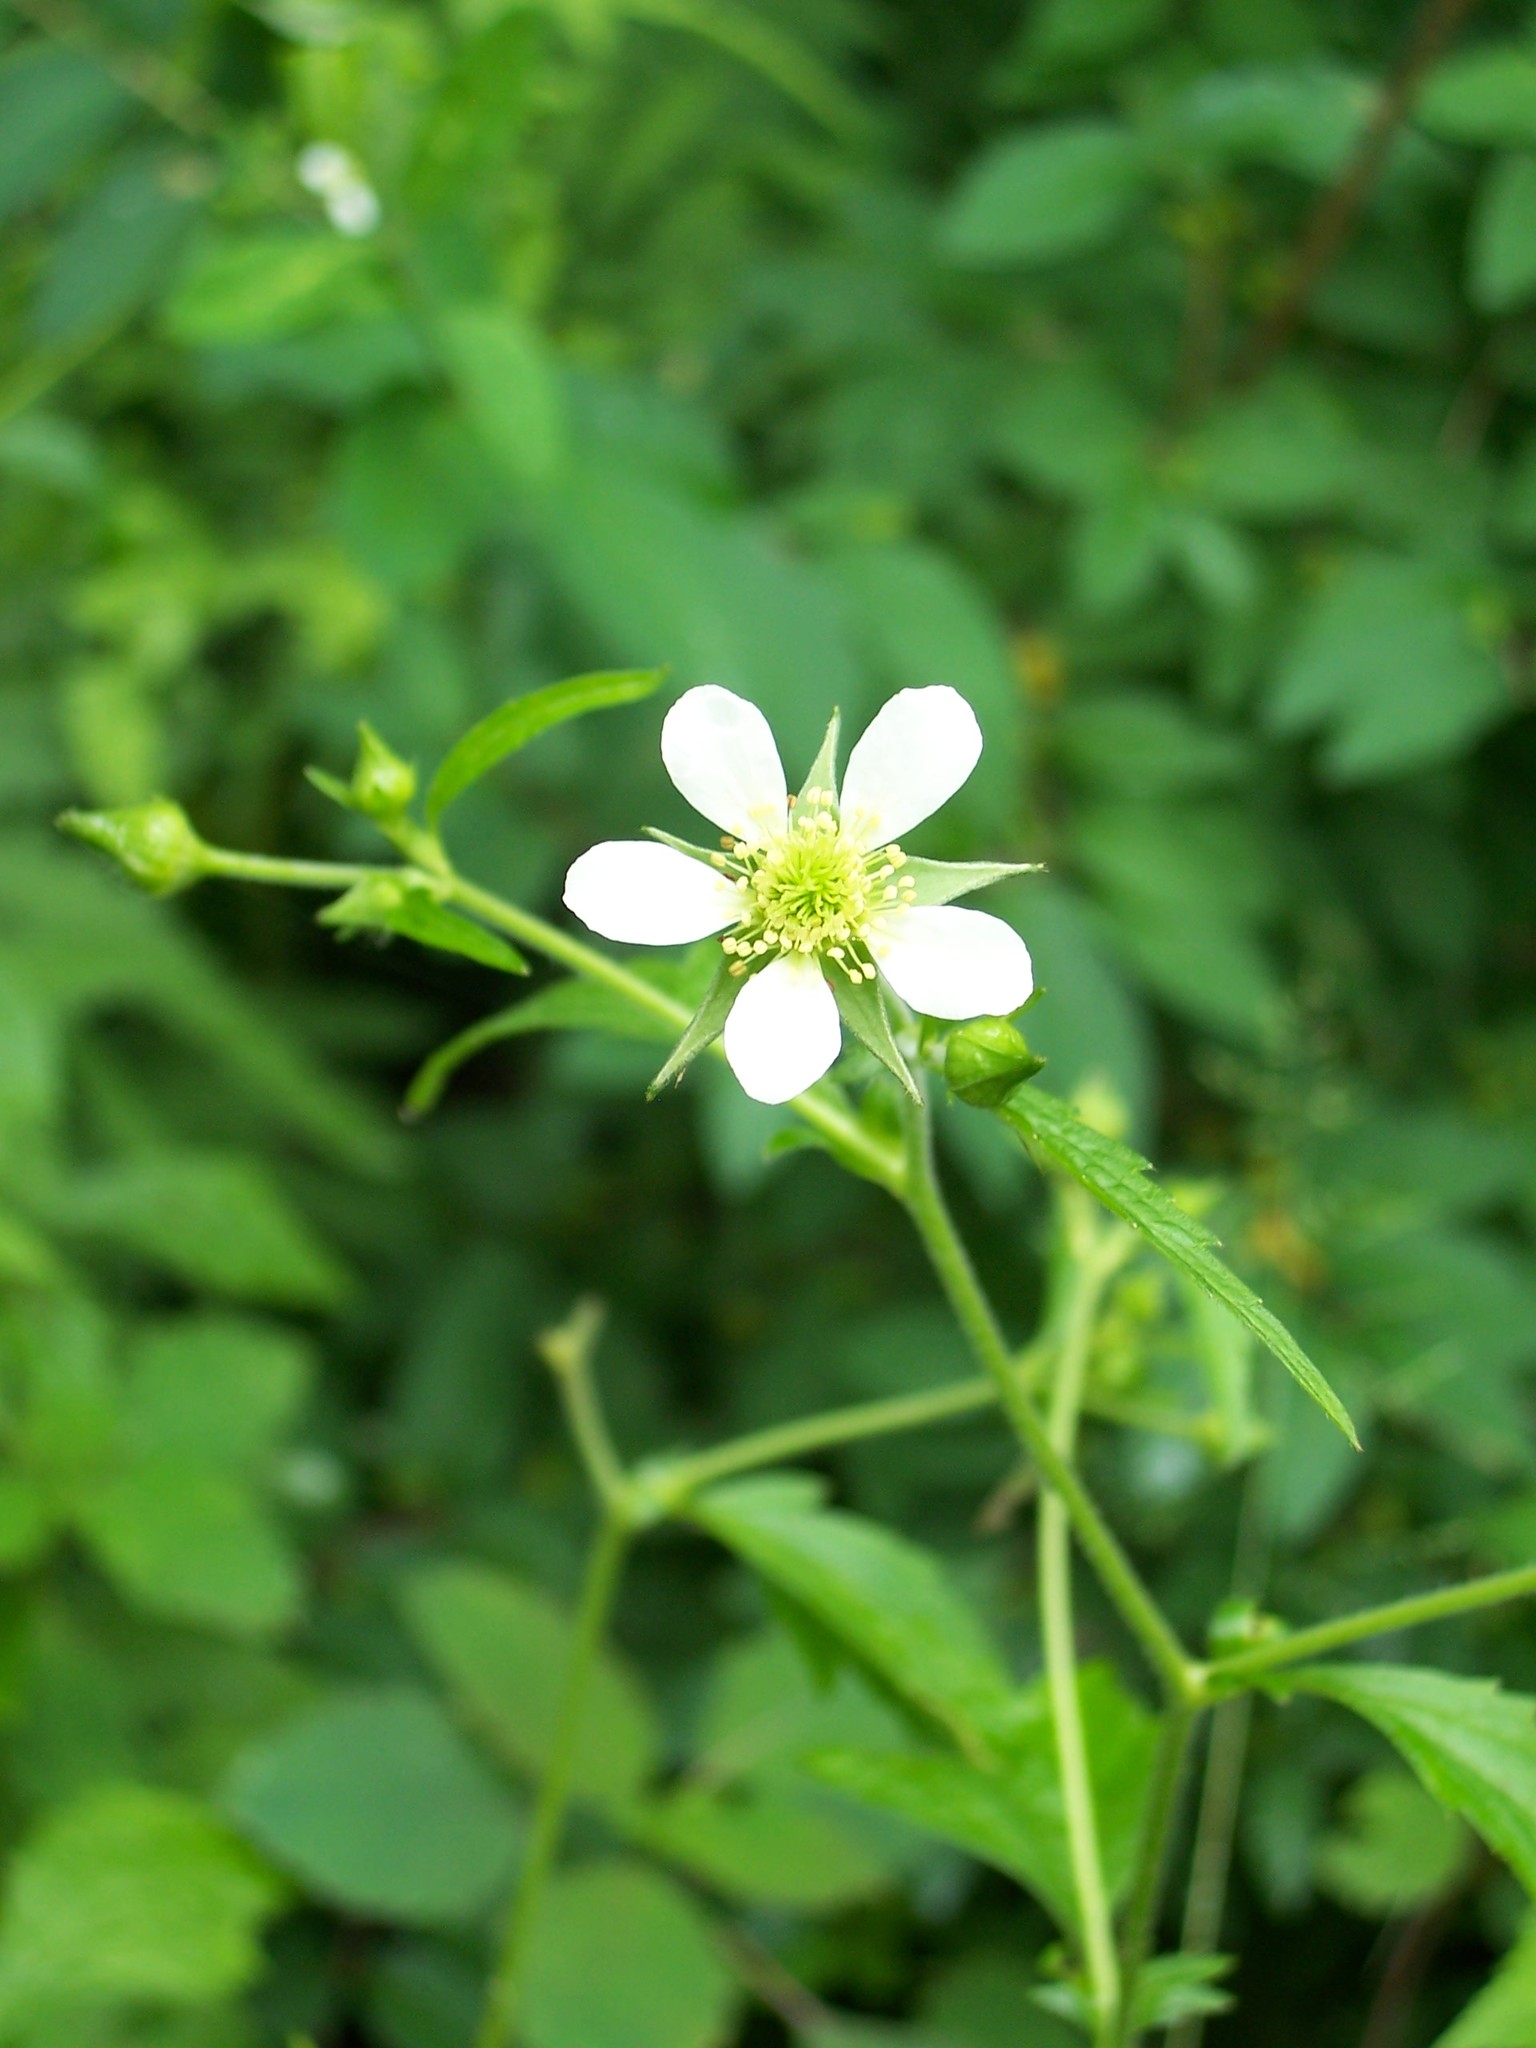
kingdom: Plantae
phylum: Tracheophyta
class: Magnoliopsida
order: Rosales
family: Rosaceae
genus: Geum
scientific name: Geum canadense
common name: White avens
